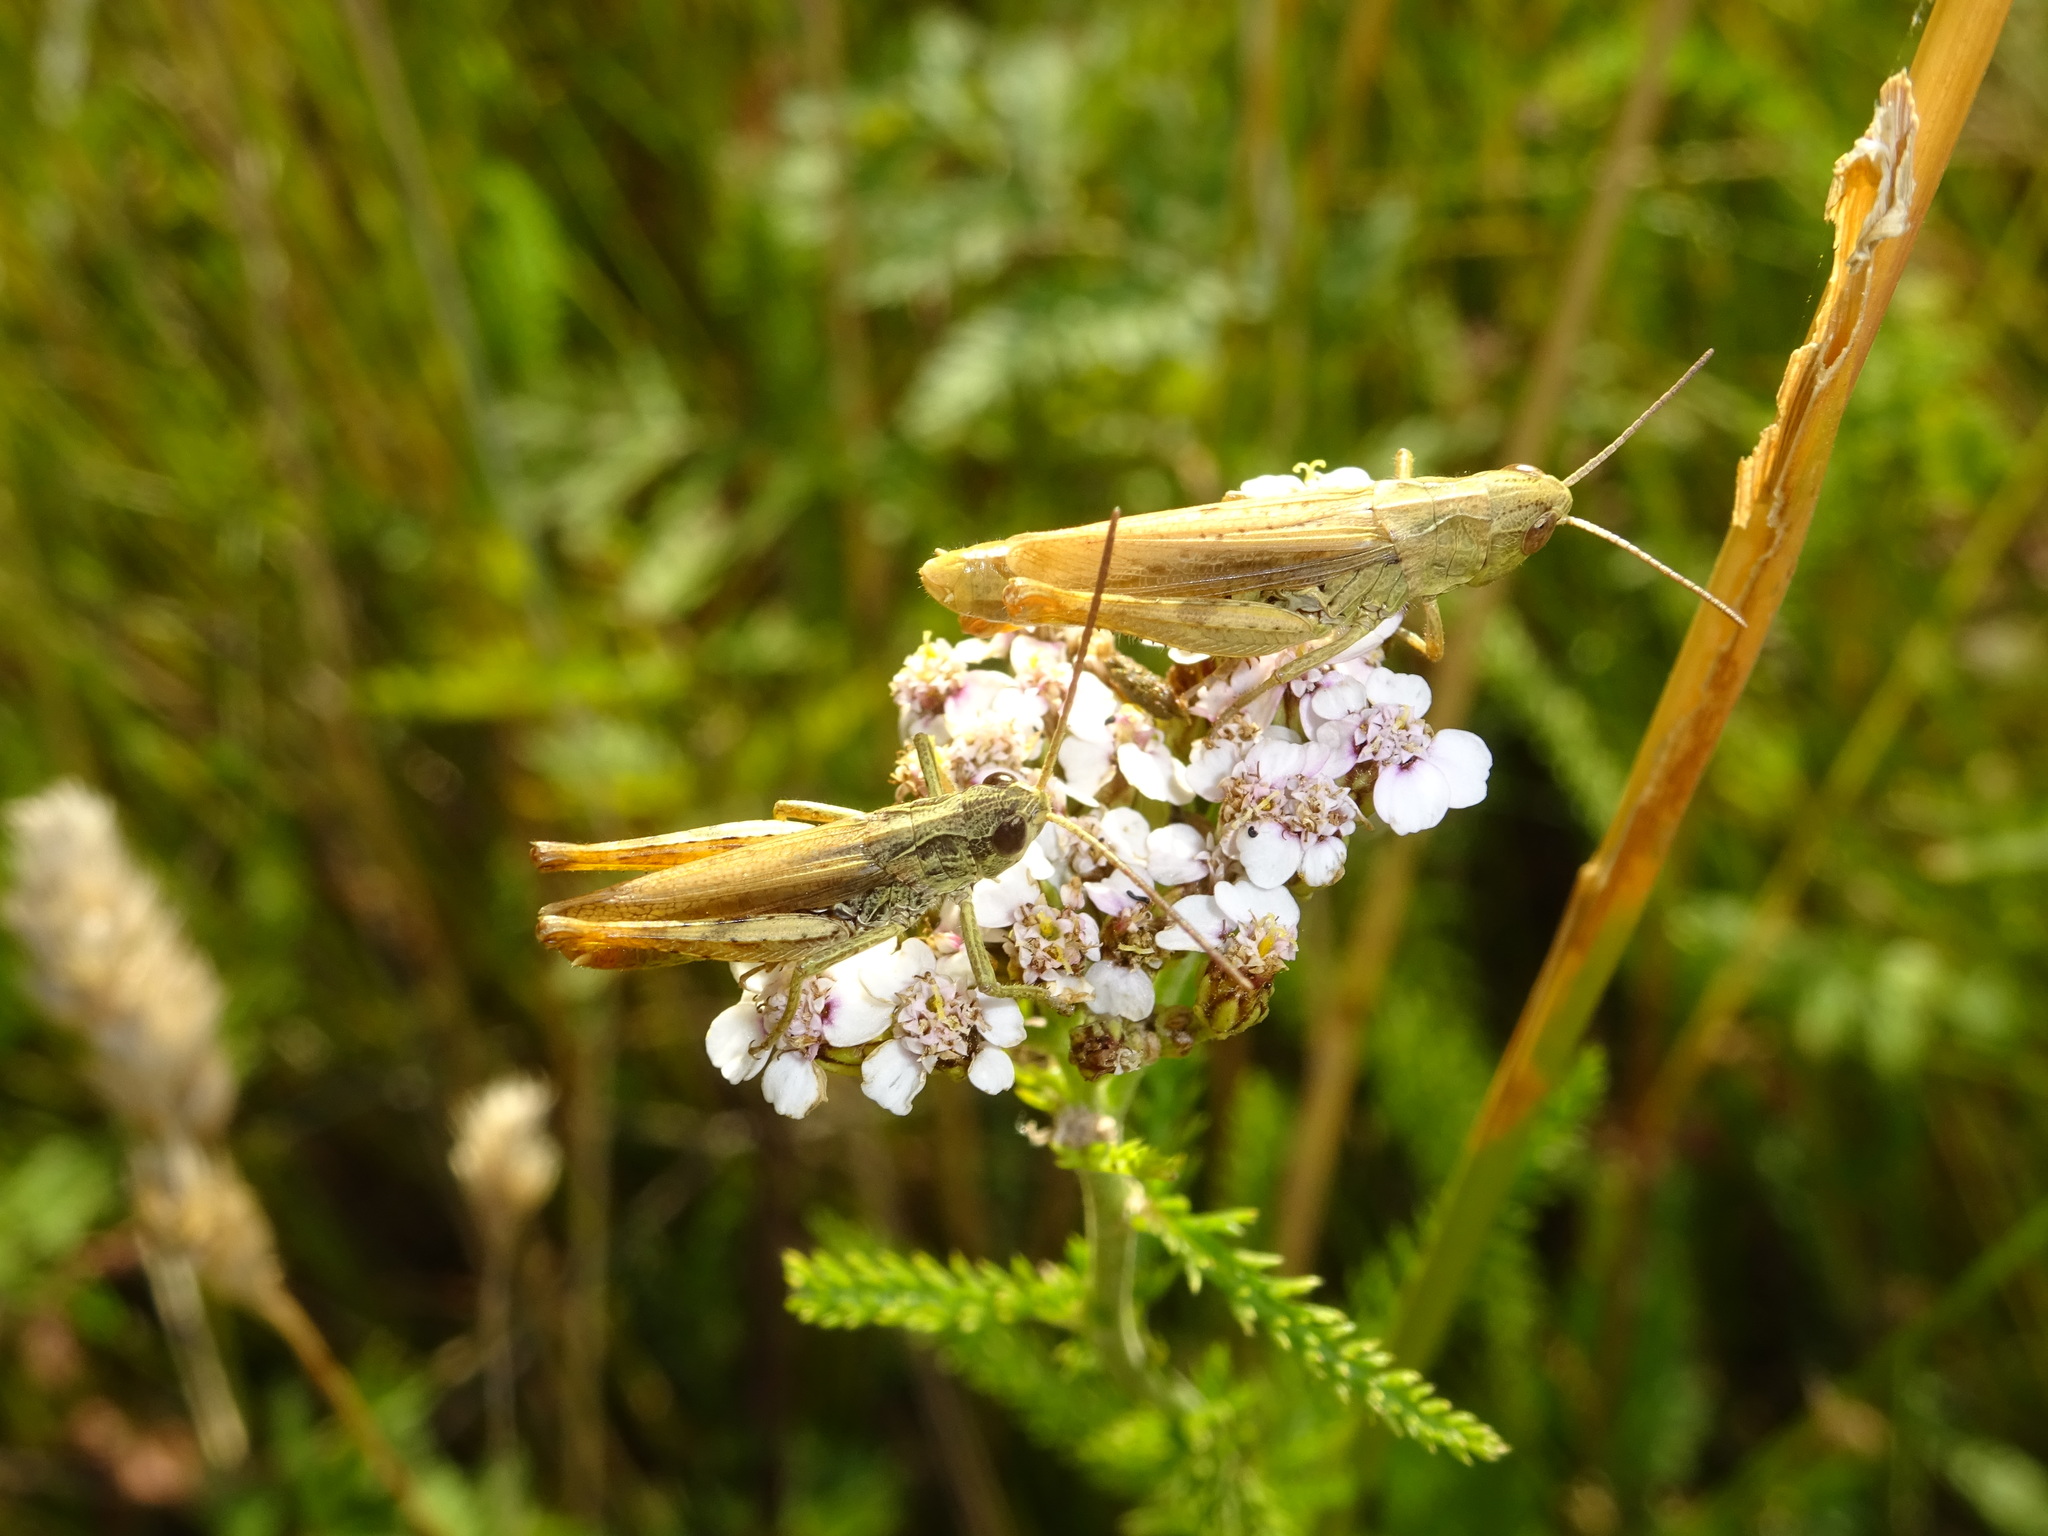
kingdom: Animalia
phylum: Arthropoda
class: Insecta
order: Orthoptera
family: Acrididae
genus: Chorthippus
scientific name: Chorthippus apricarius
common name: Upland field grasshopper
